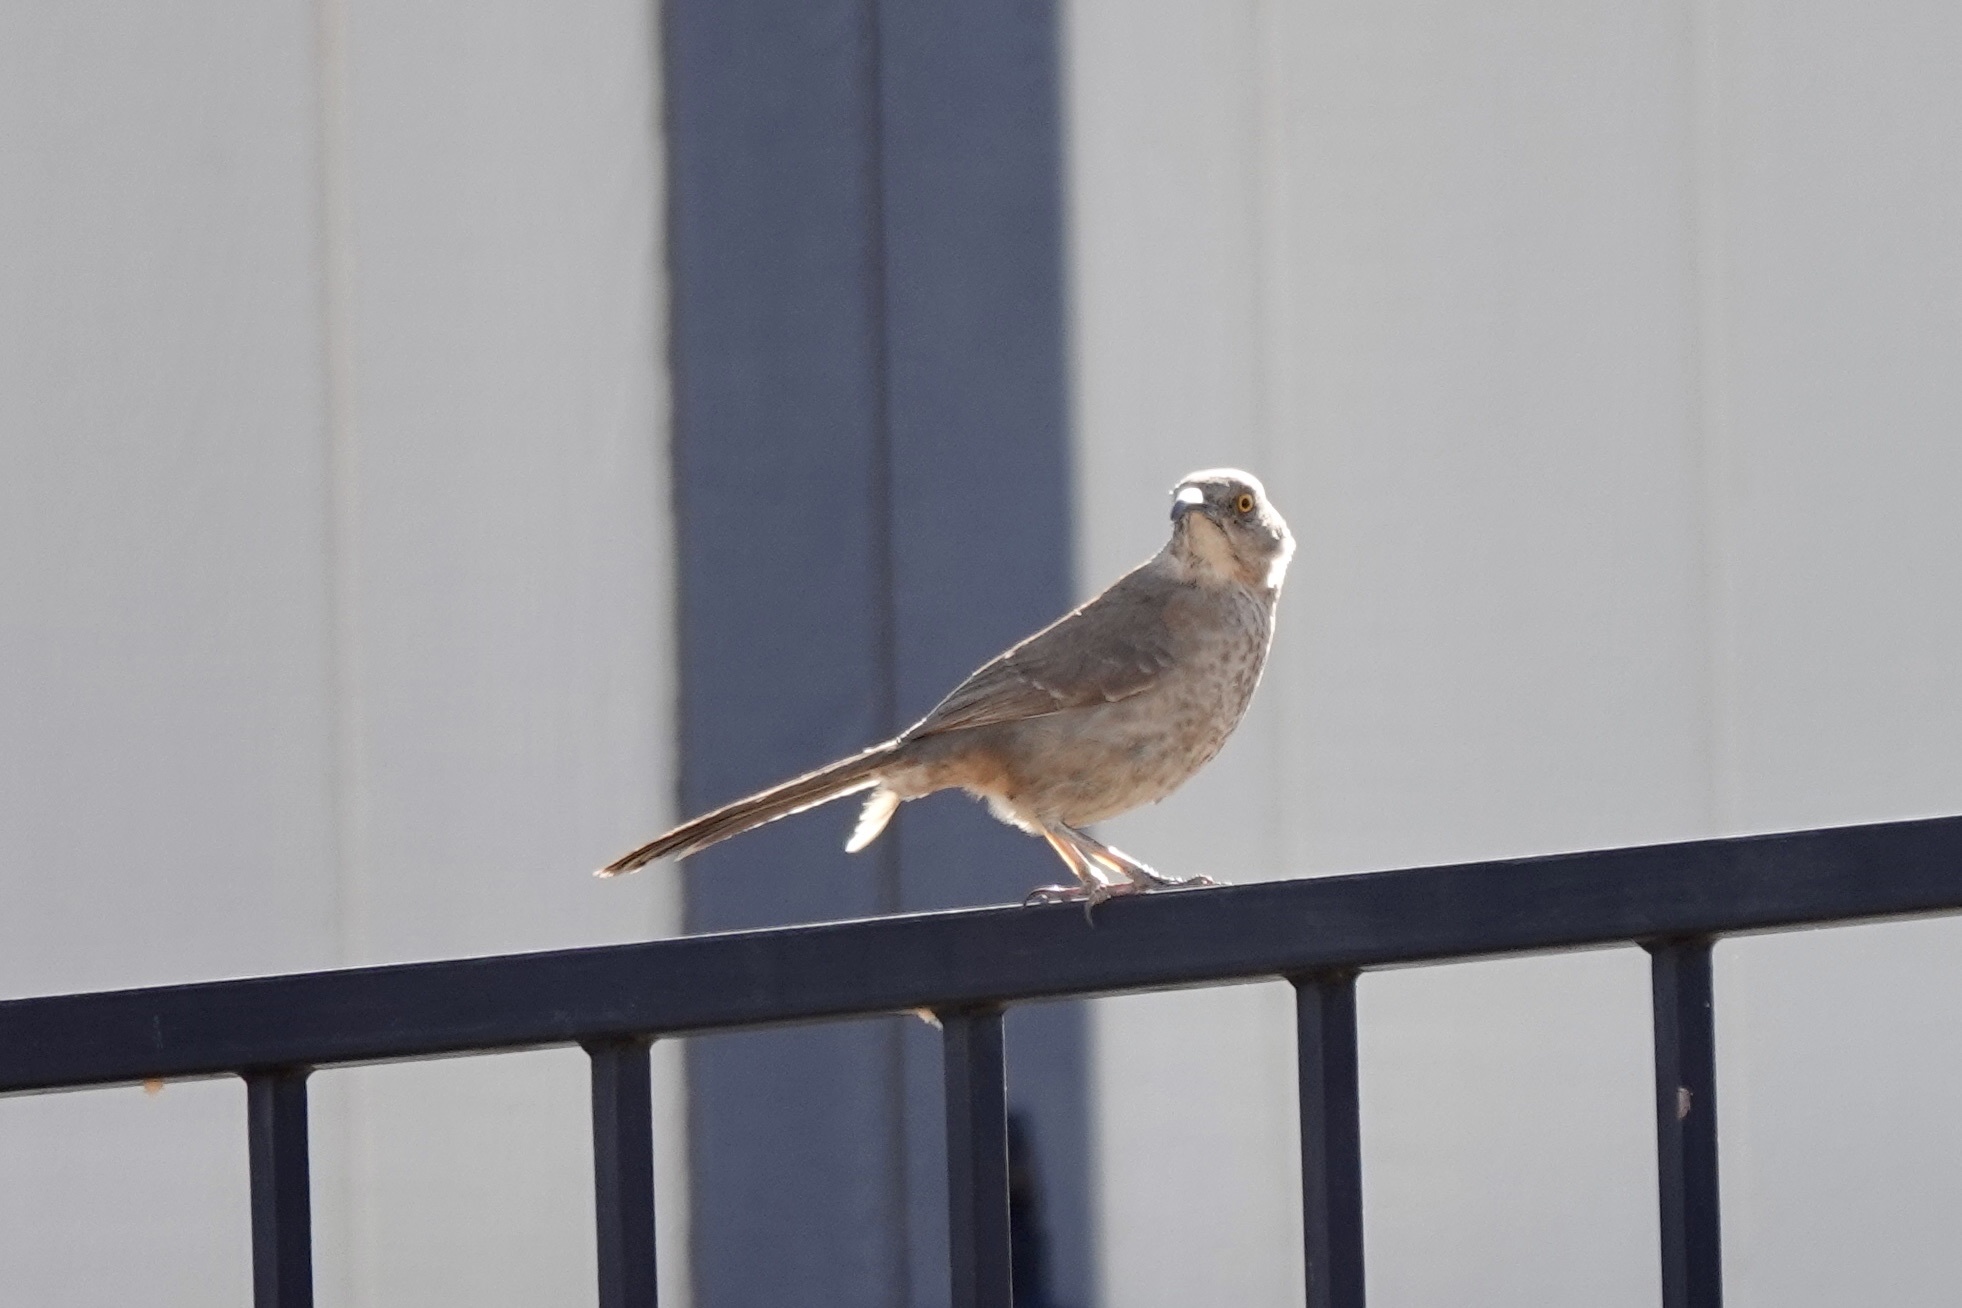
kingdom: Animalia
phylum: Chordata
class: Aves
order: Passeriformes
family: Mimidae
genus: Toxostoma
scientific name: Toxostoma curvirostre
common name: Curve-billed thrasher
